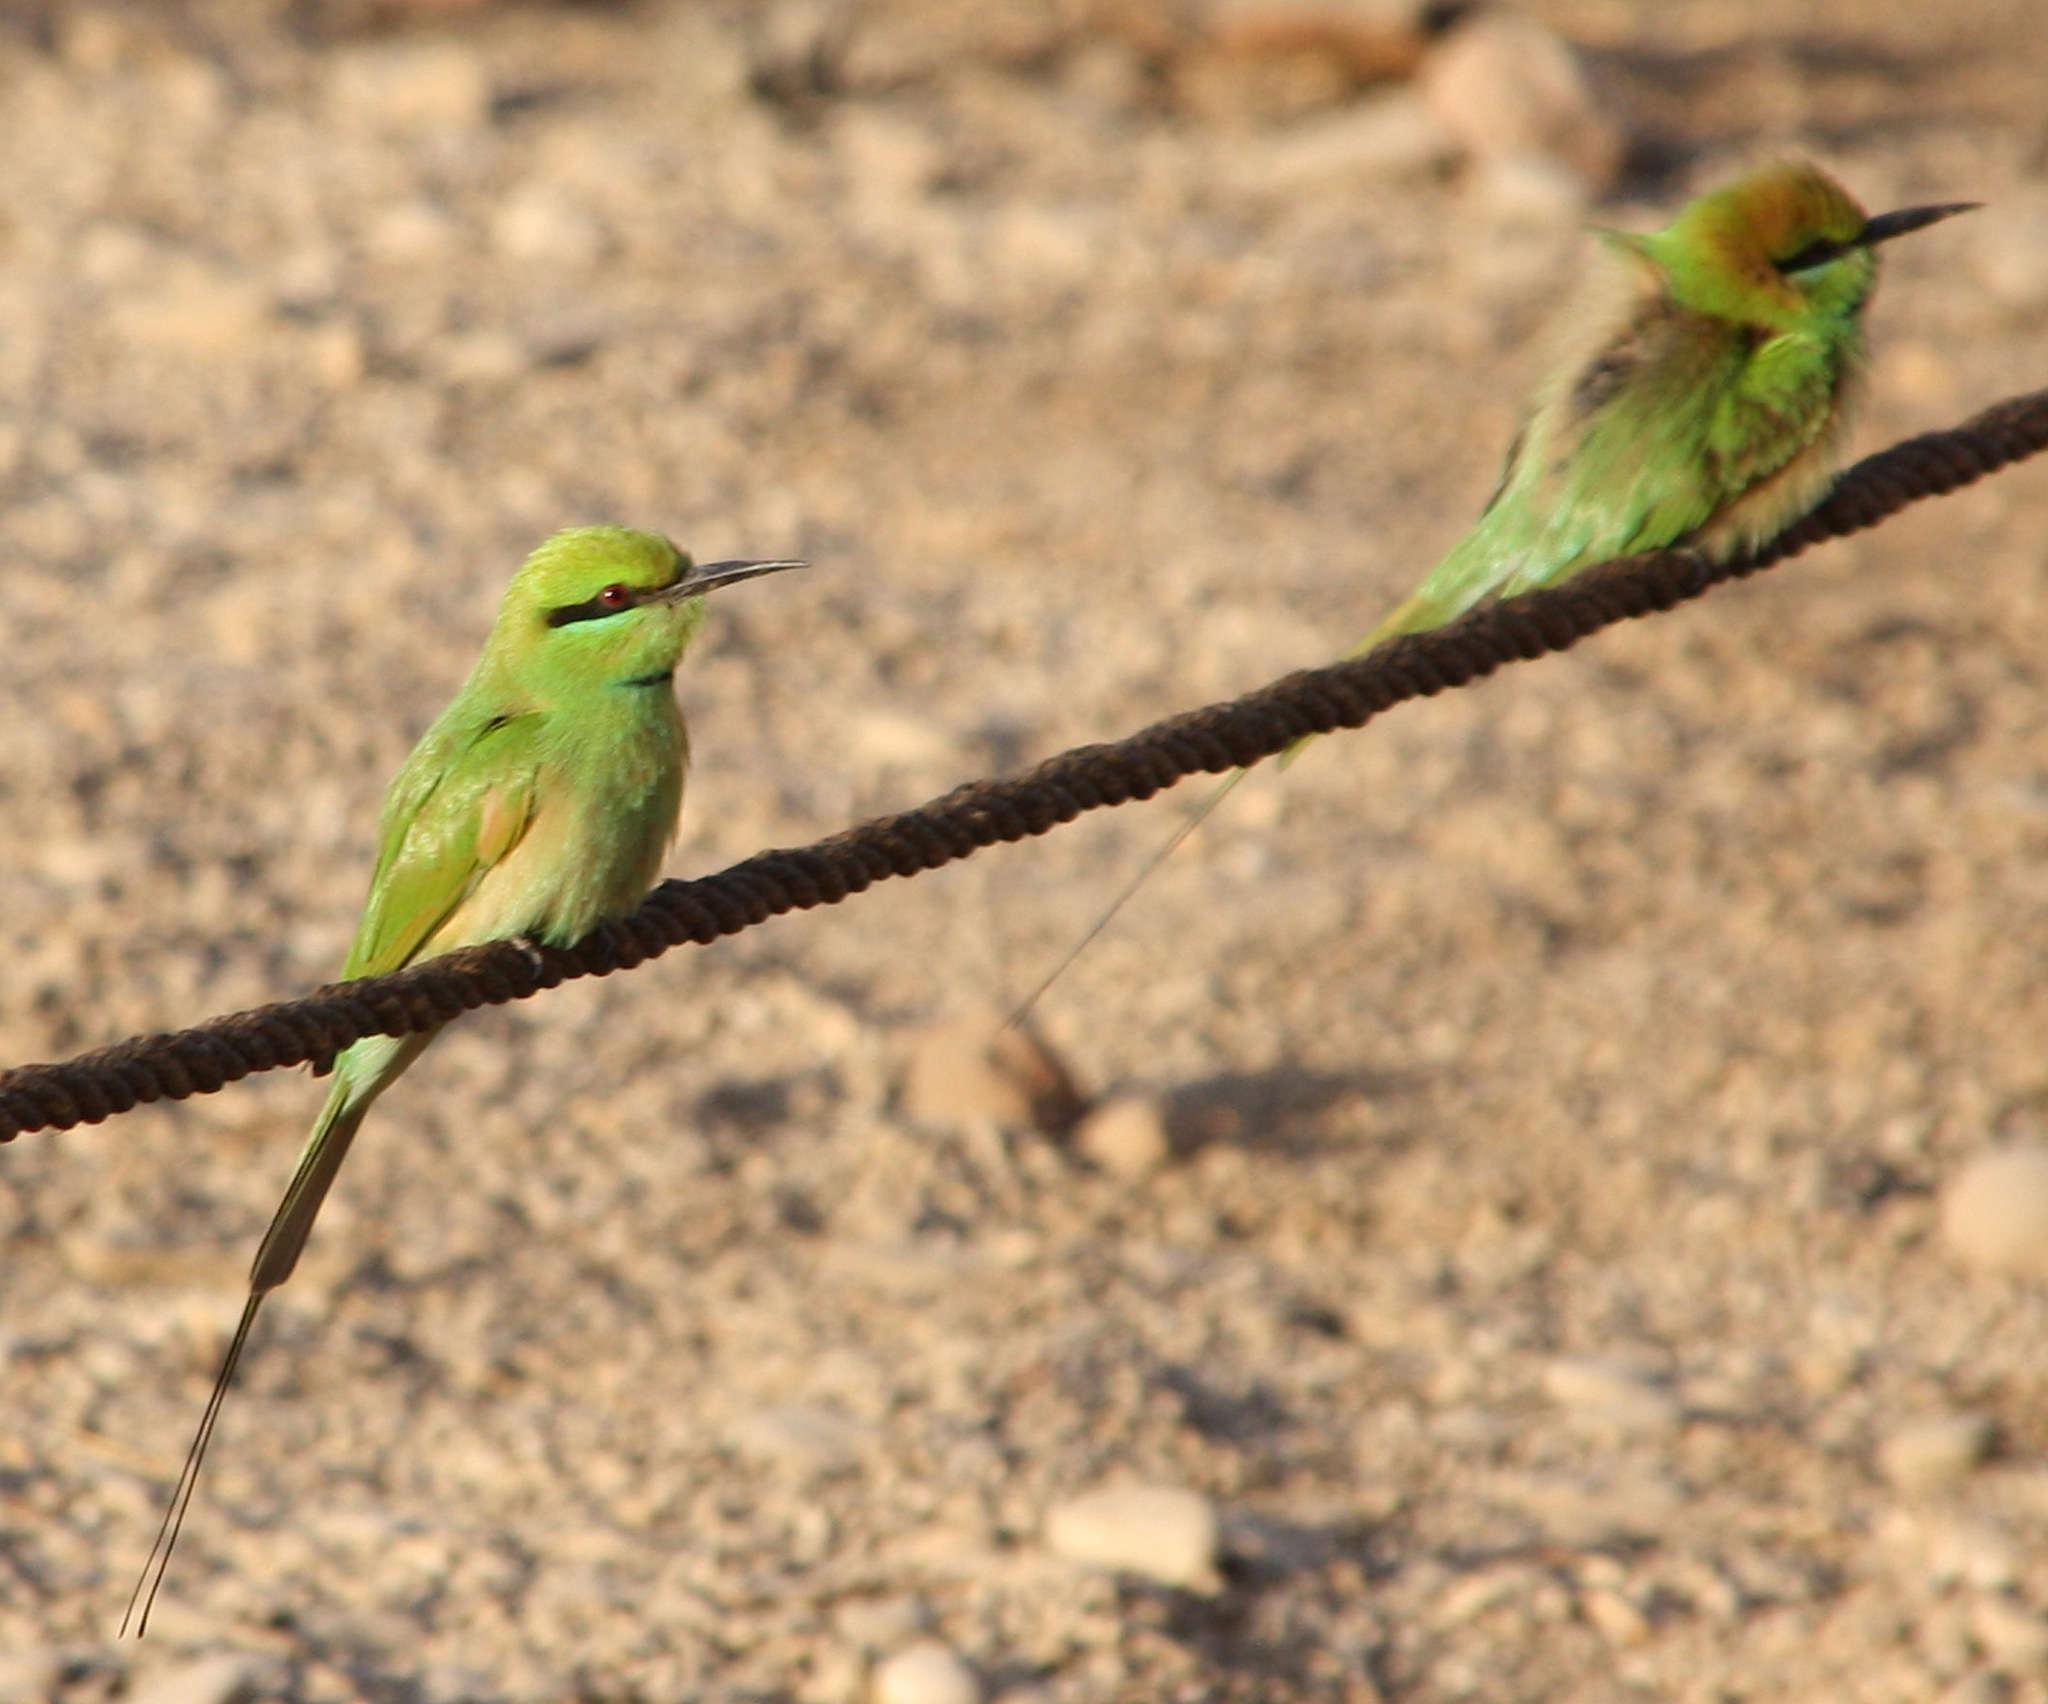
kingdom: Animalia
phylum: Chordata
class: Aves
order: Coraciiformes
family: Meropidae
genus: Merops
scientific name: Merops viridissimus
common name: African green bee-eater
